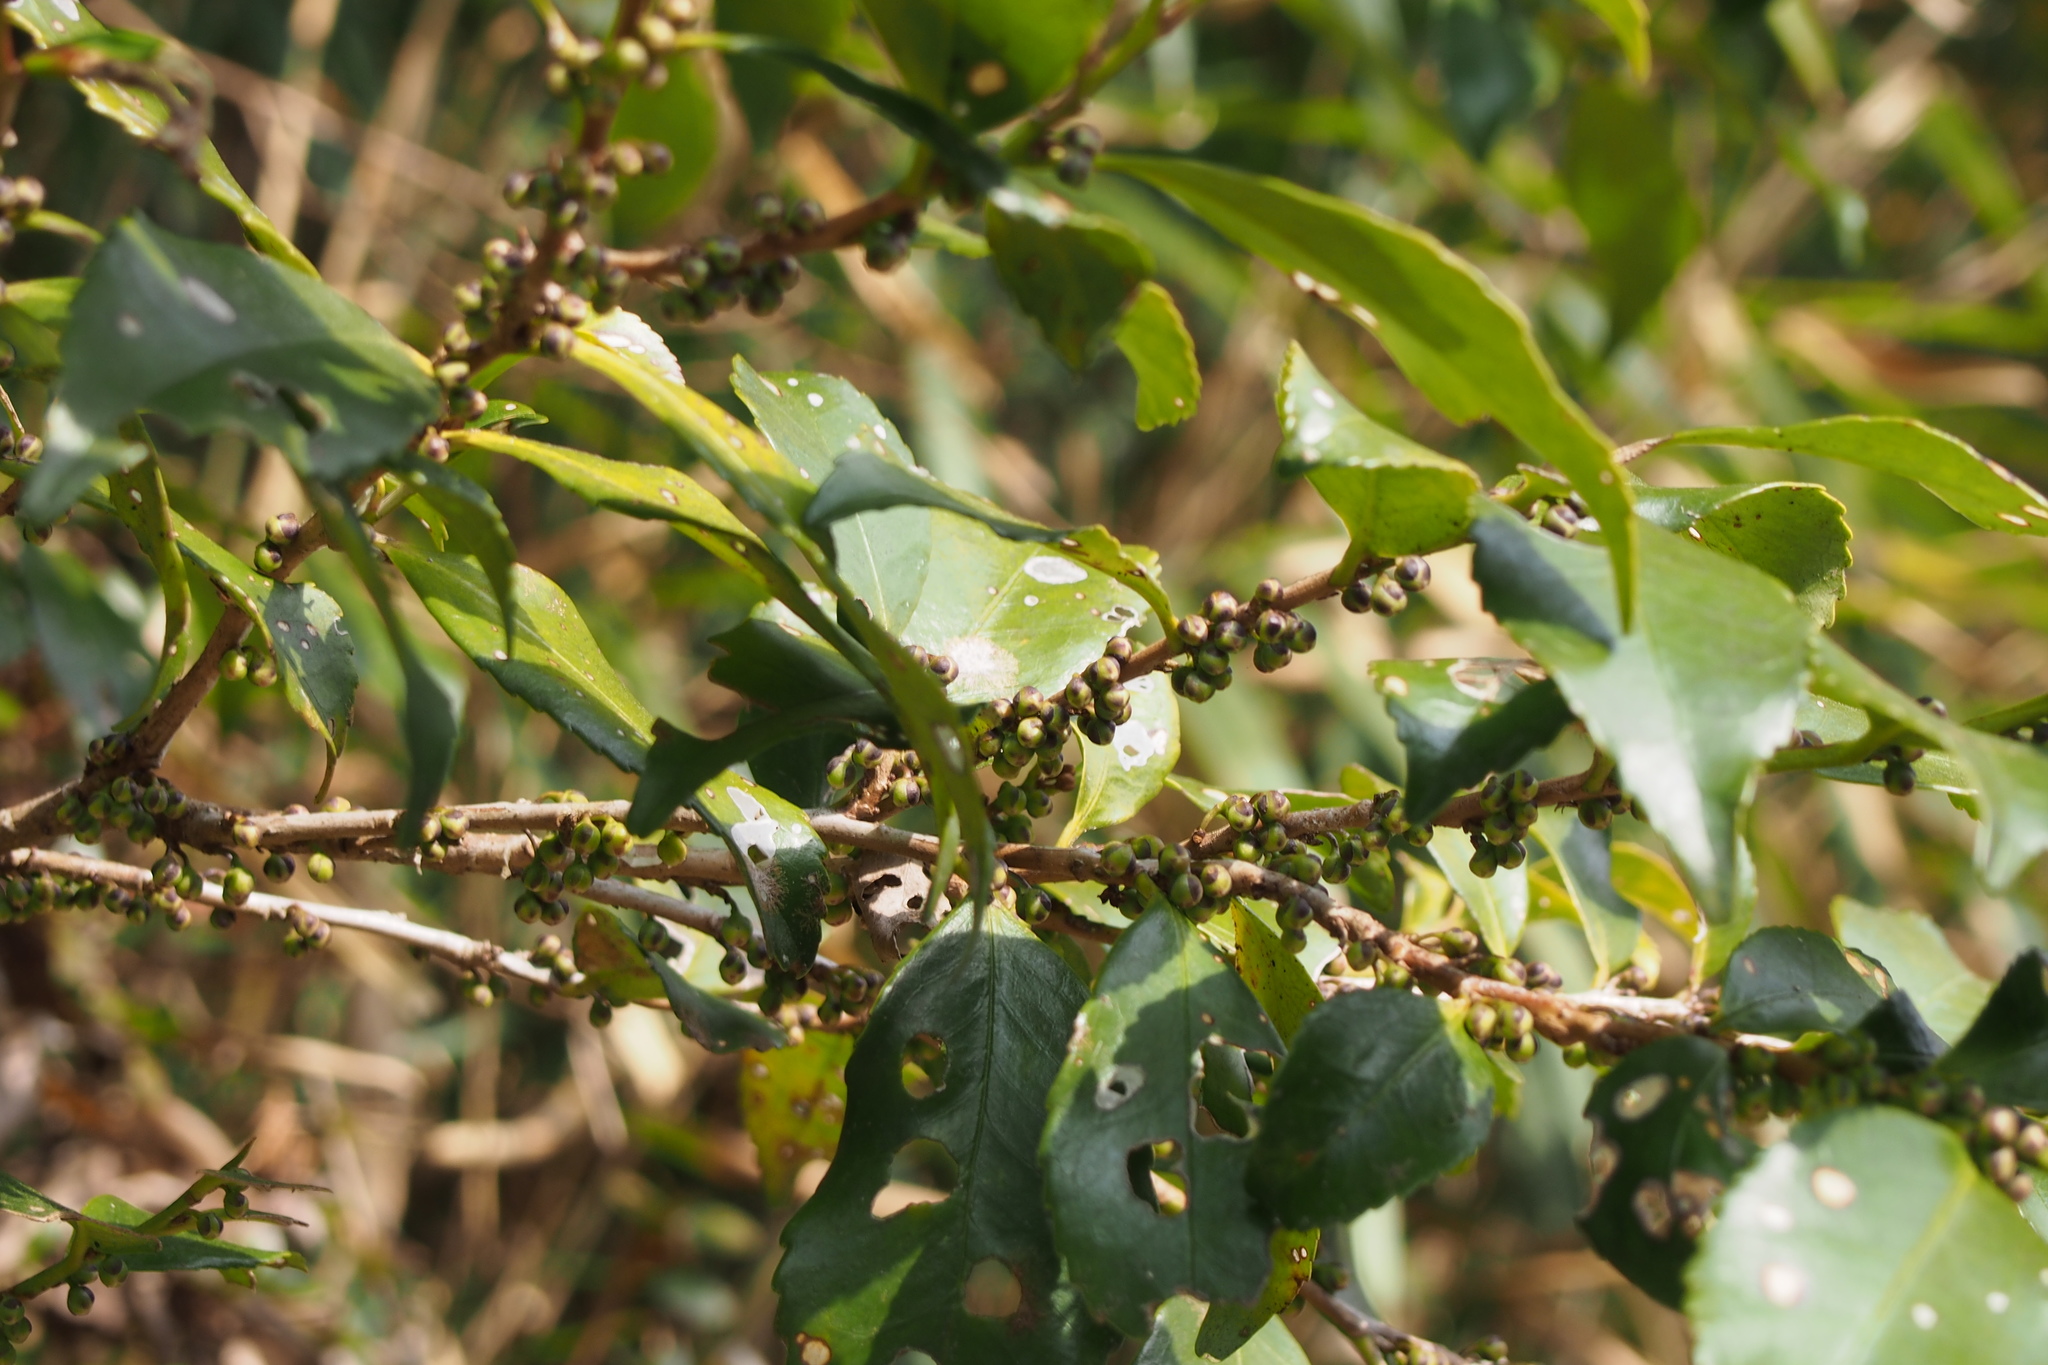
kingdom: Plantae
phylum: Tracheophyta
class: Magnoliopsida
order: Ericales
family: Pentaphylacaceae
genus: Eurya
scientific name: Eurya japonica
